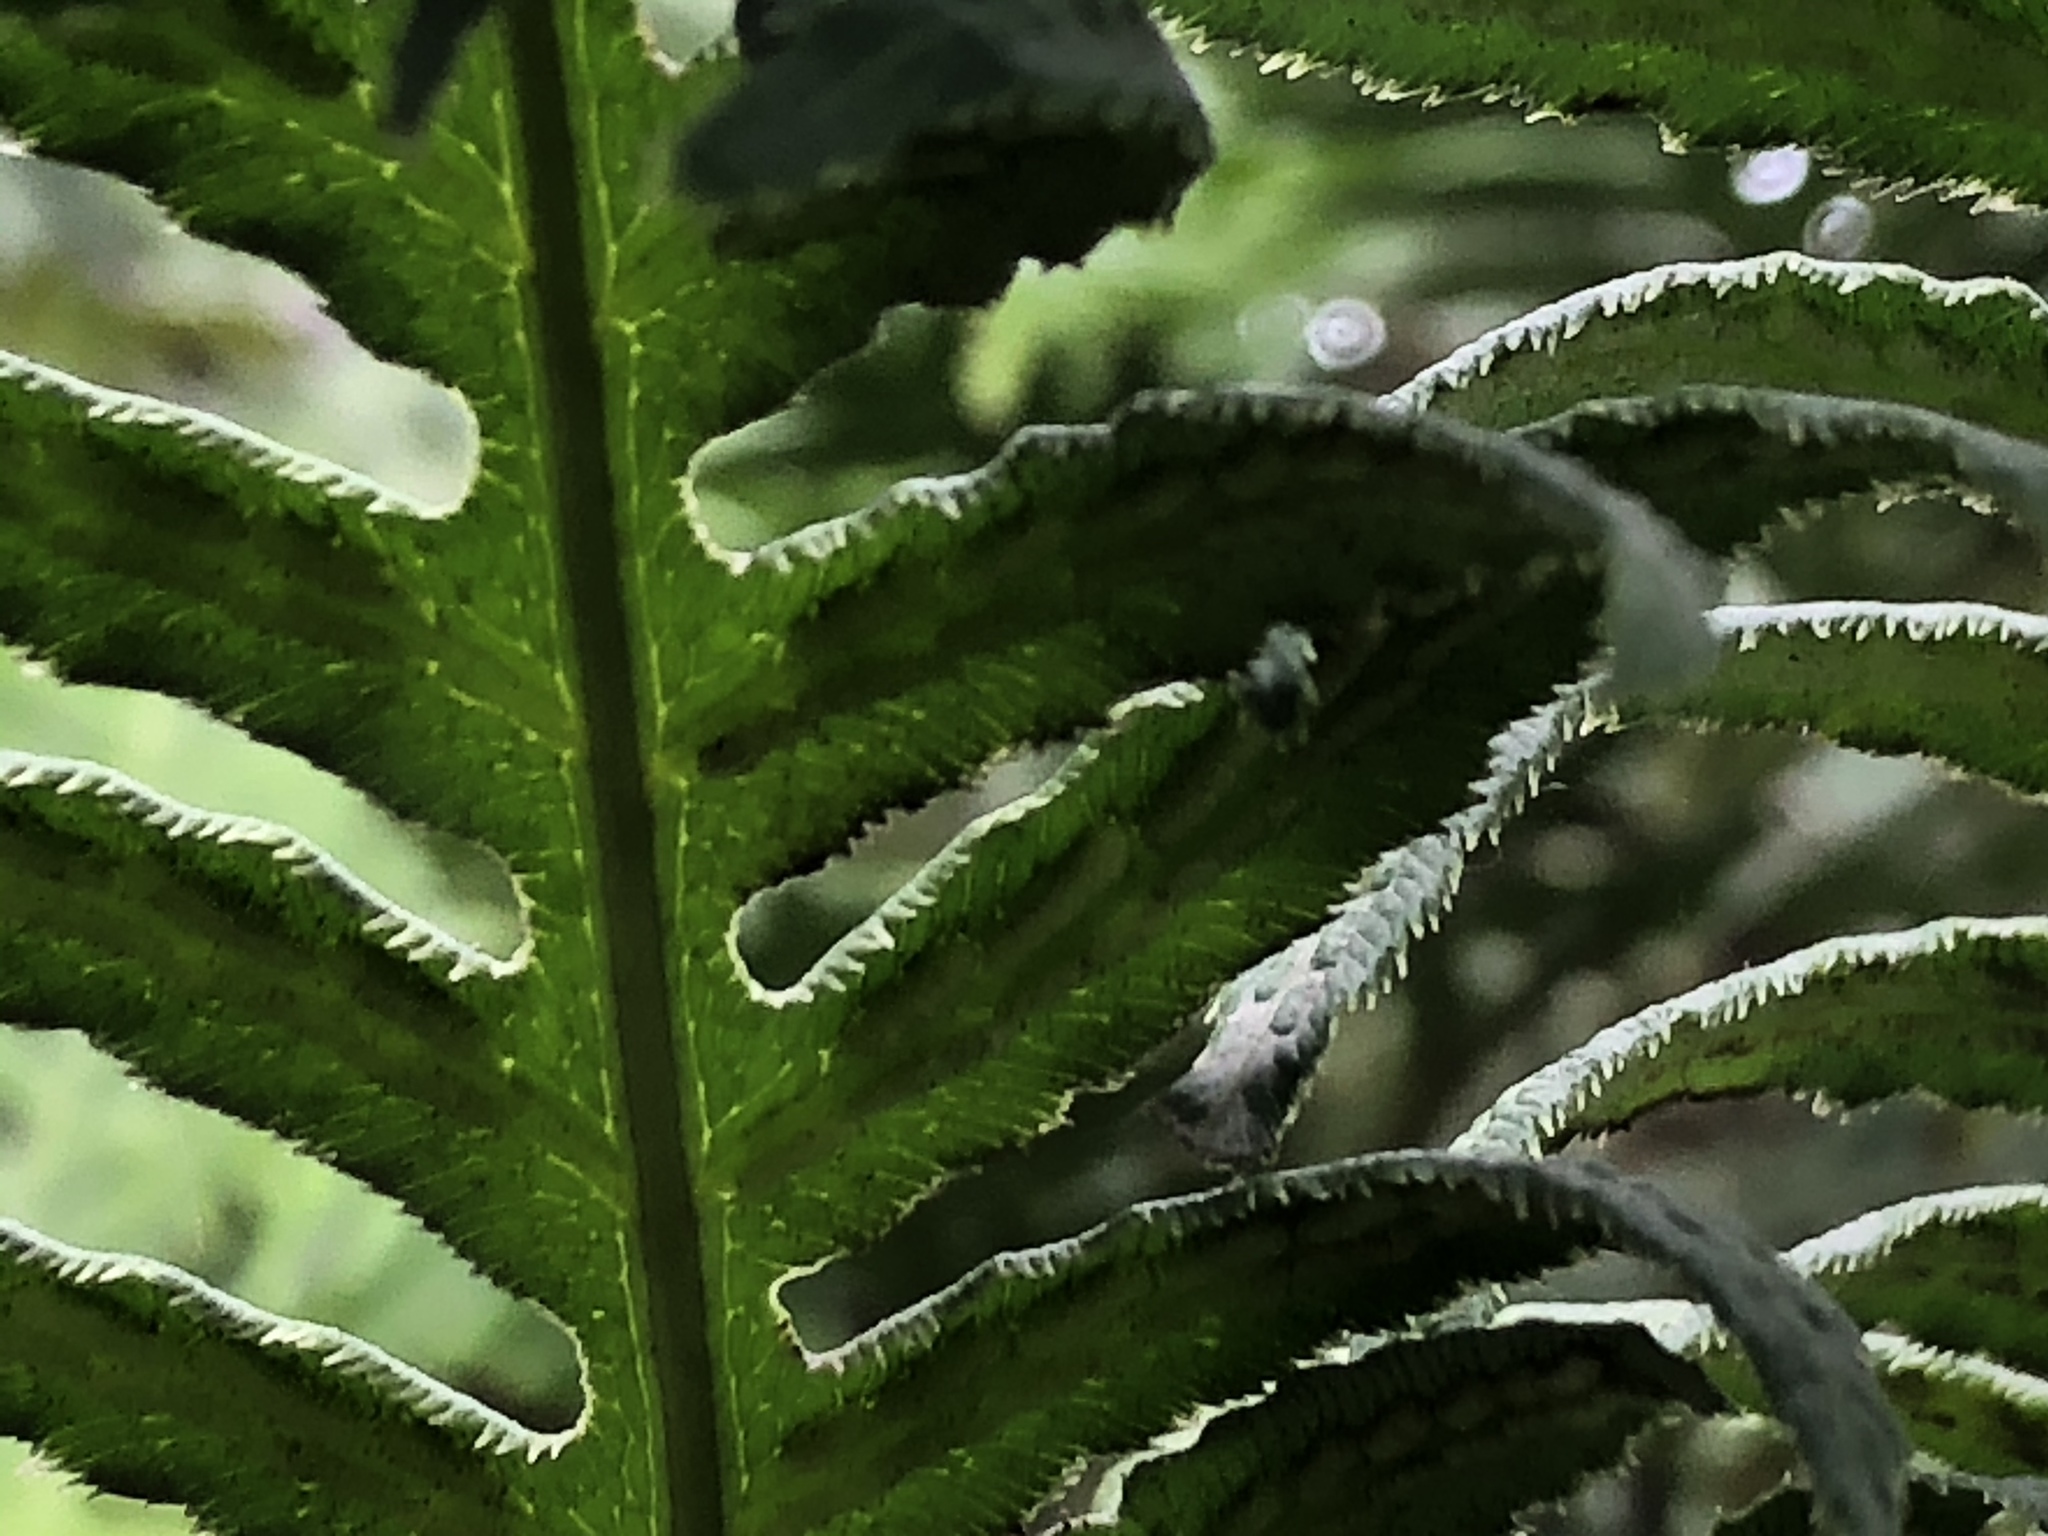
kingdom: Plantae
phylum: Tracheophyta
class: Polypodiopsida
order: Polypodiales
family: Blechnaceae
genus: Woodwardia
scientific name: Woodwardia fimbriata
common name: Giant chain fern
